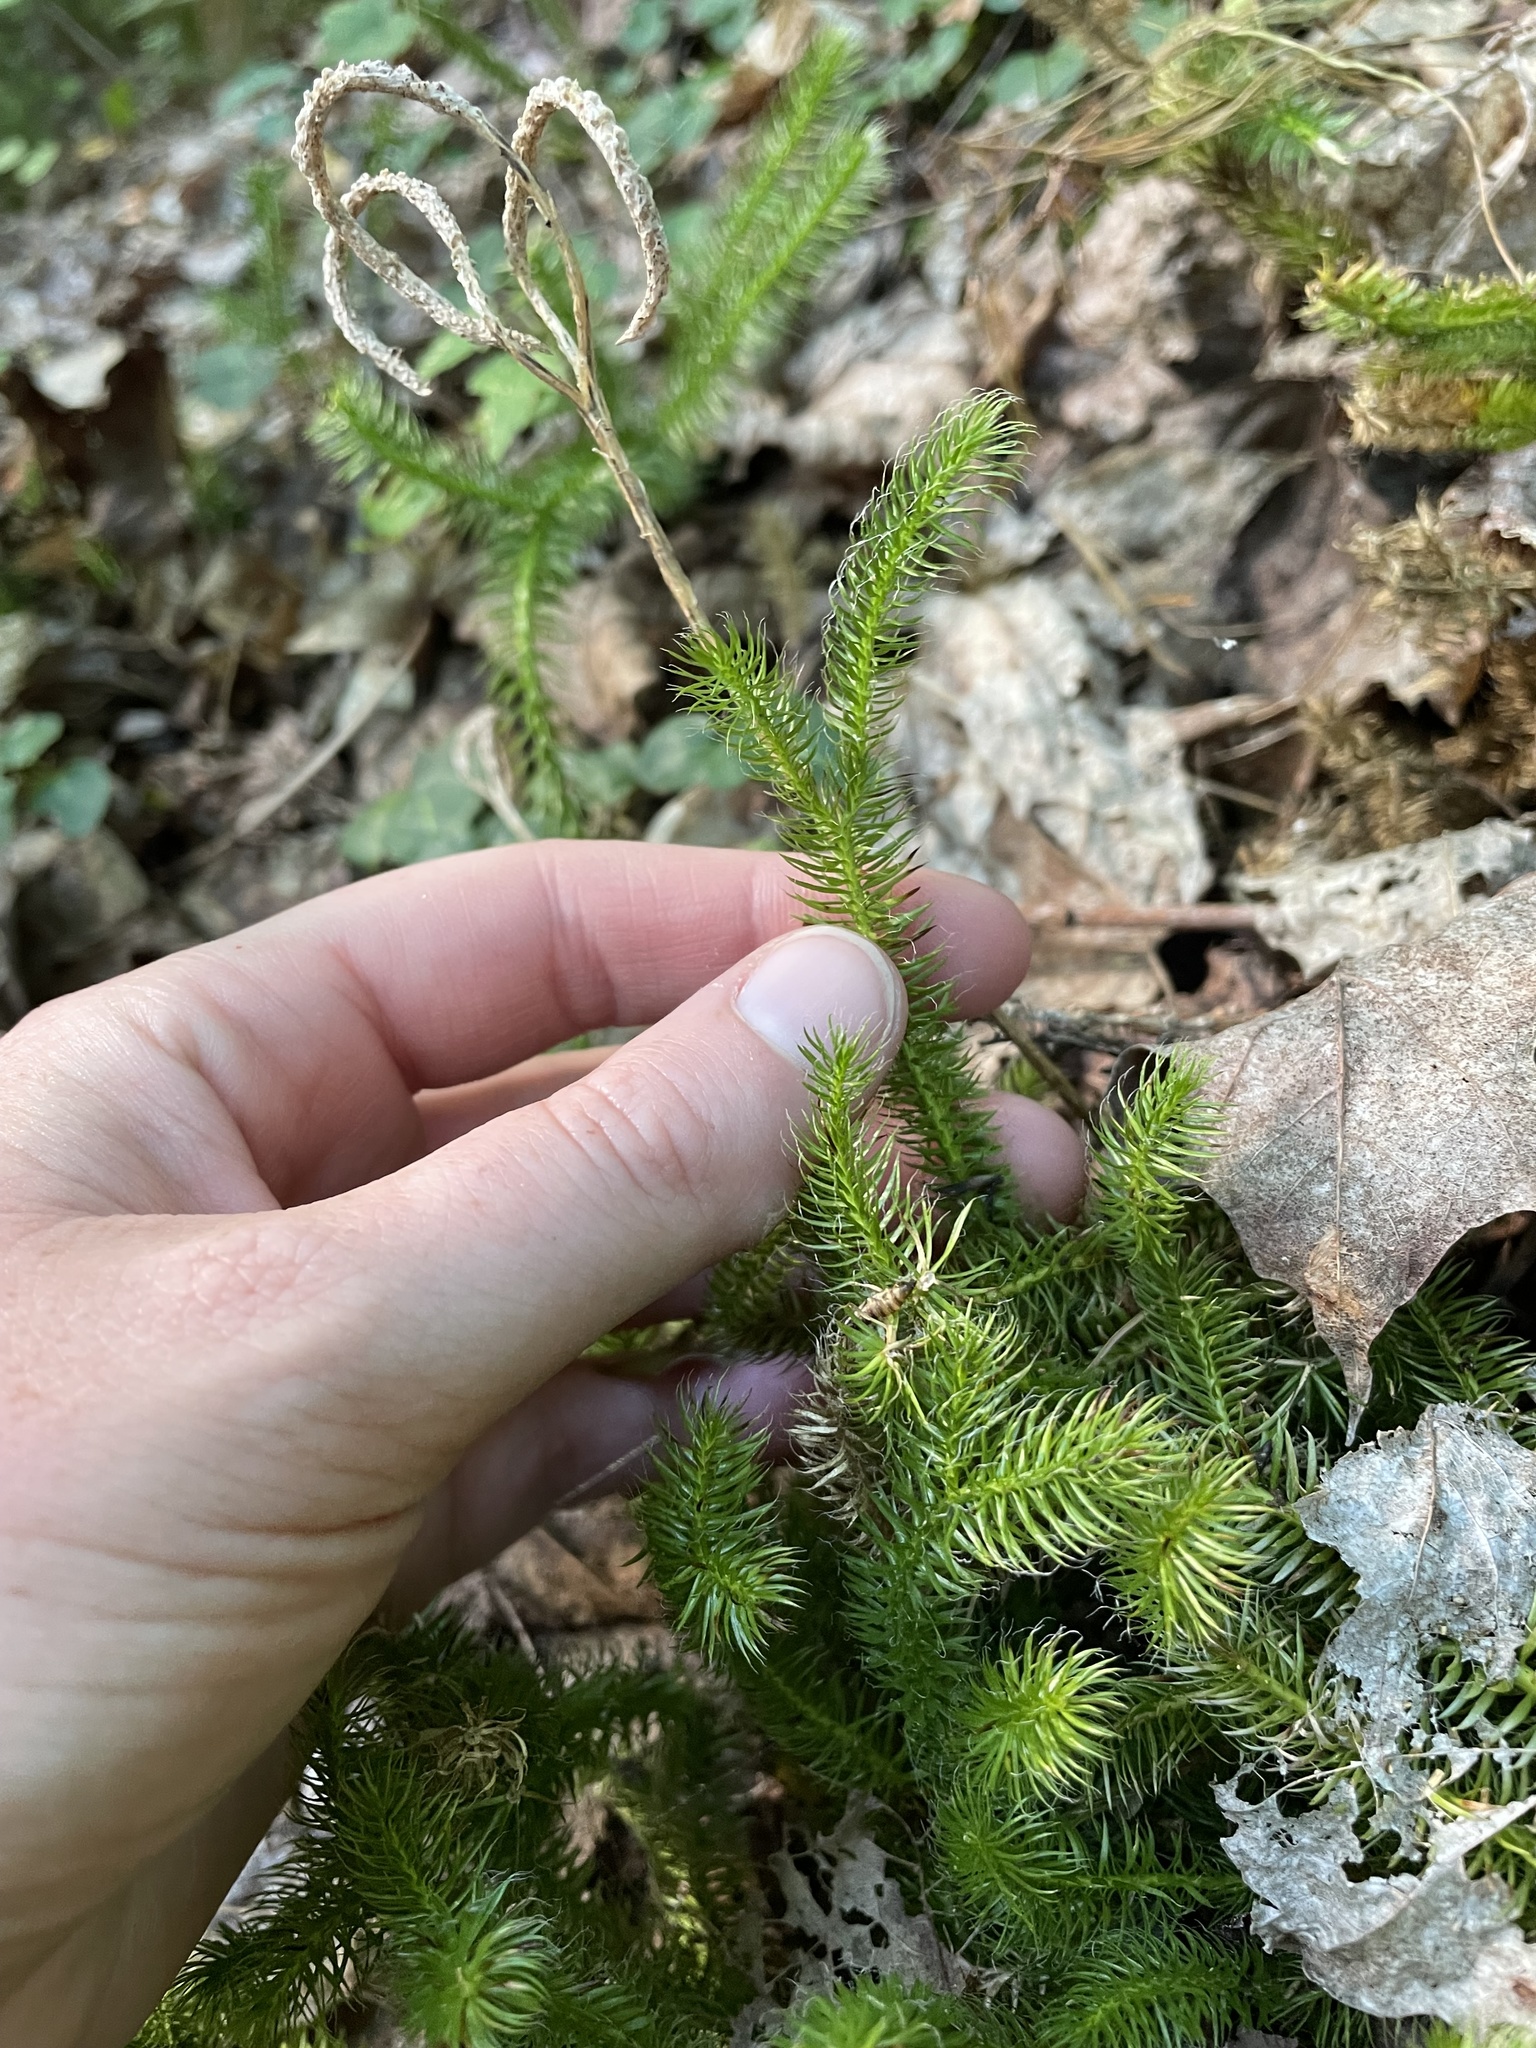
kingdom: Plantae
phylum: Tracheophyta
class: Lycopodiopsida
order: Lycopodiales
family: Lycopodiaceae
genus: Lycopodium
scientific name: Lycopodium clavatum
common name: Stag's-horn clubmoss
